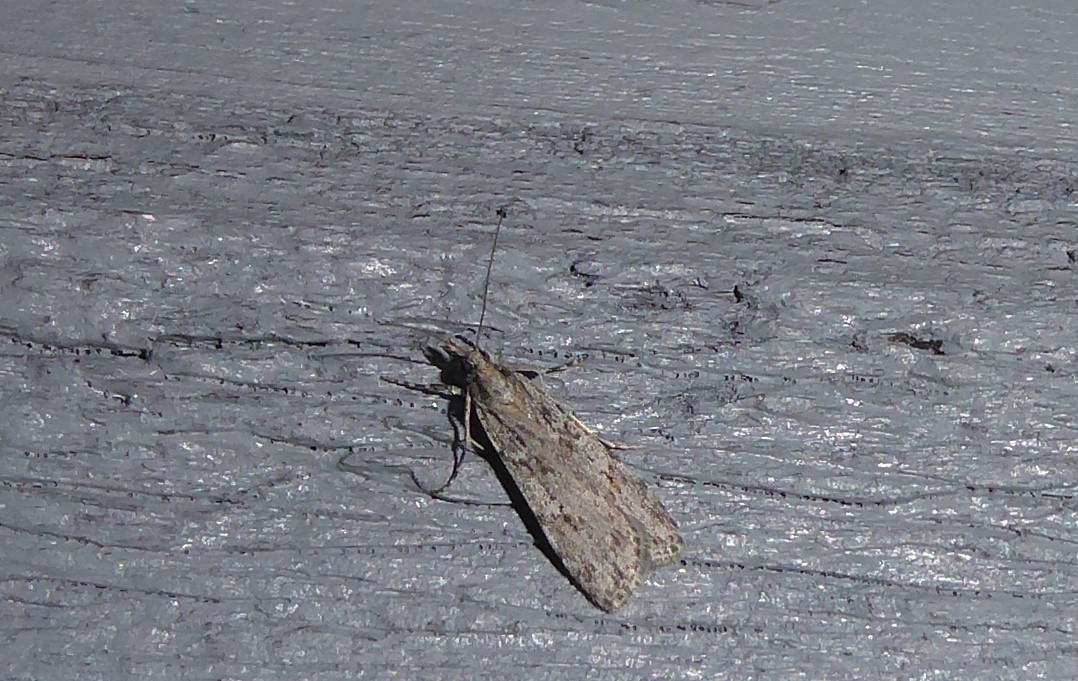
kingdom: Animalia
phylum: Arthropoda
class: Insecta
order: Lepidoptera
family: Crambidae
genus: Scoparia
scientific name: Scoparia chalicodes
